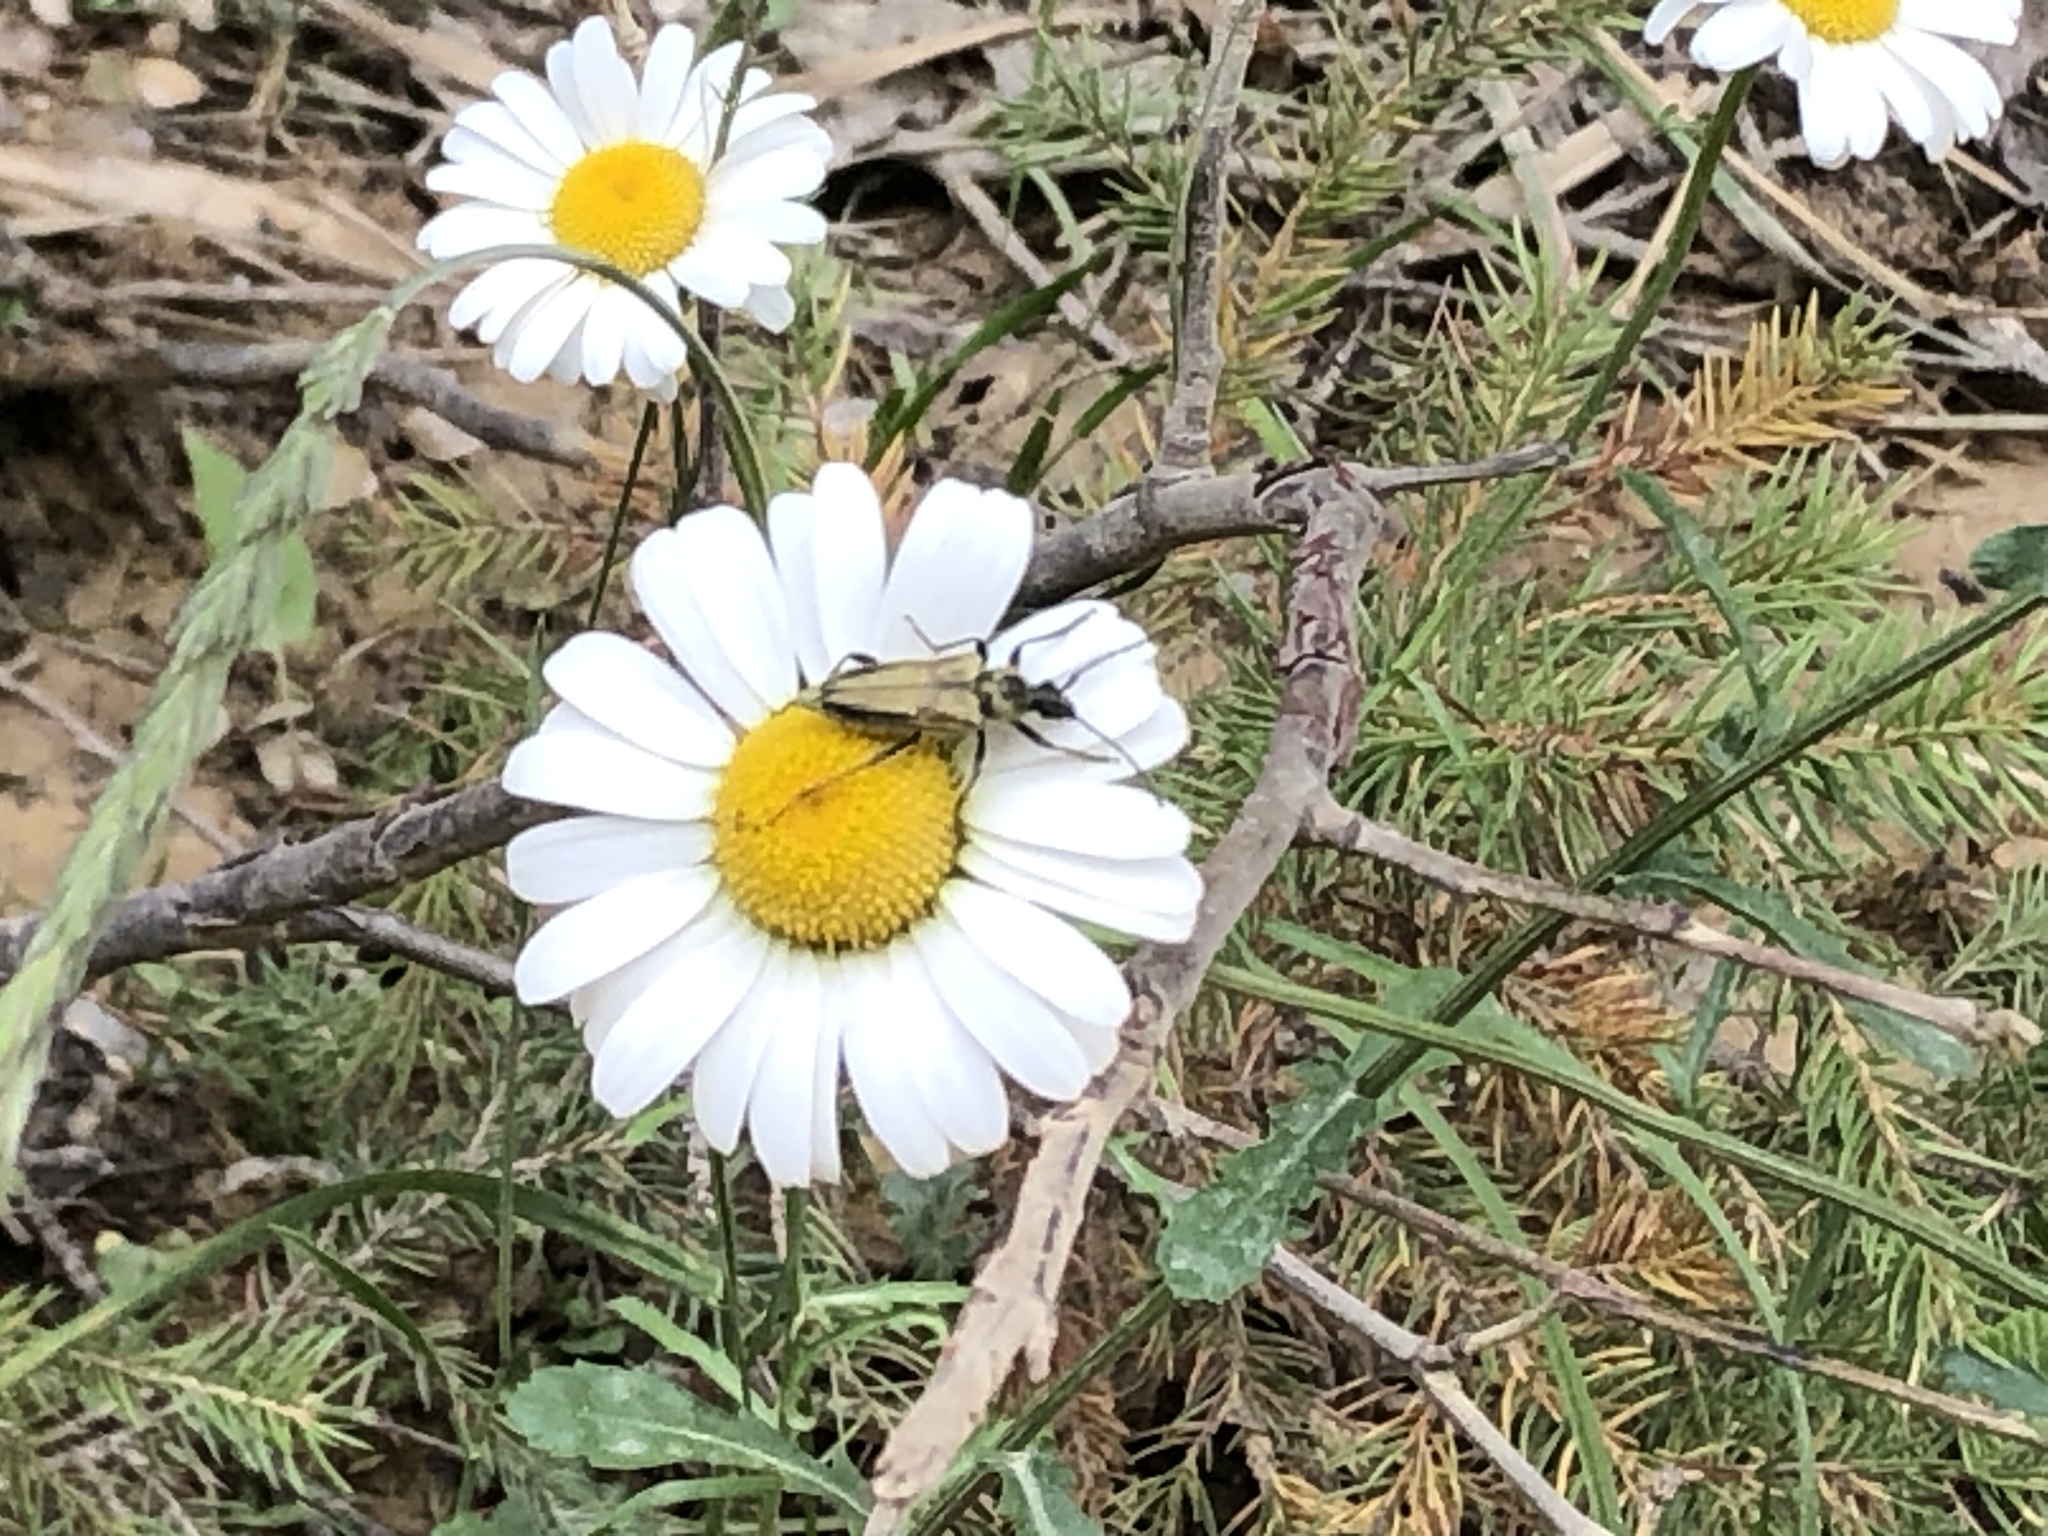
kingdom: Animalia
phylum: Arthropoda
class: Insecta
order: Coleoptera
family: Cerambycidae
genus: Cosmosalia
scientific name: Cosmosalia chrysocoma
